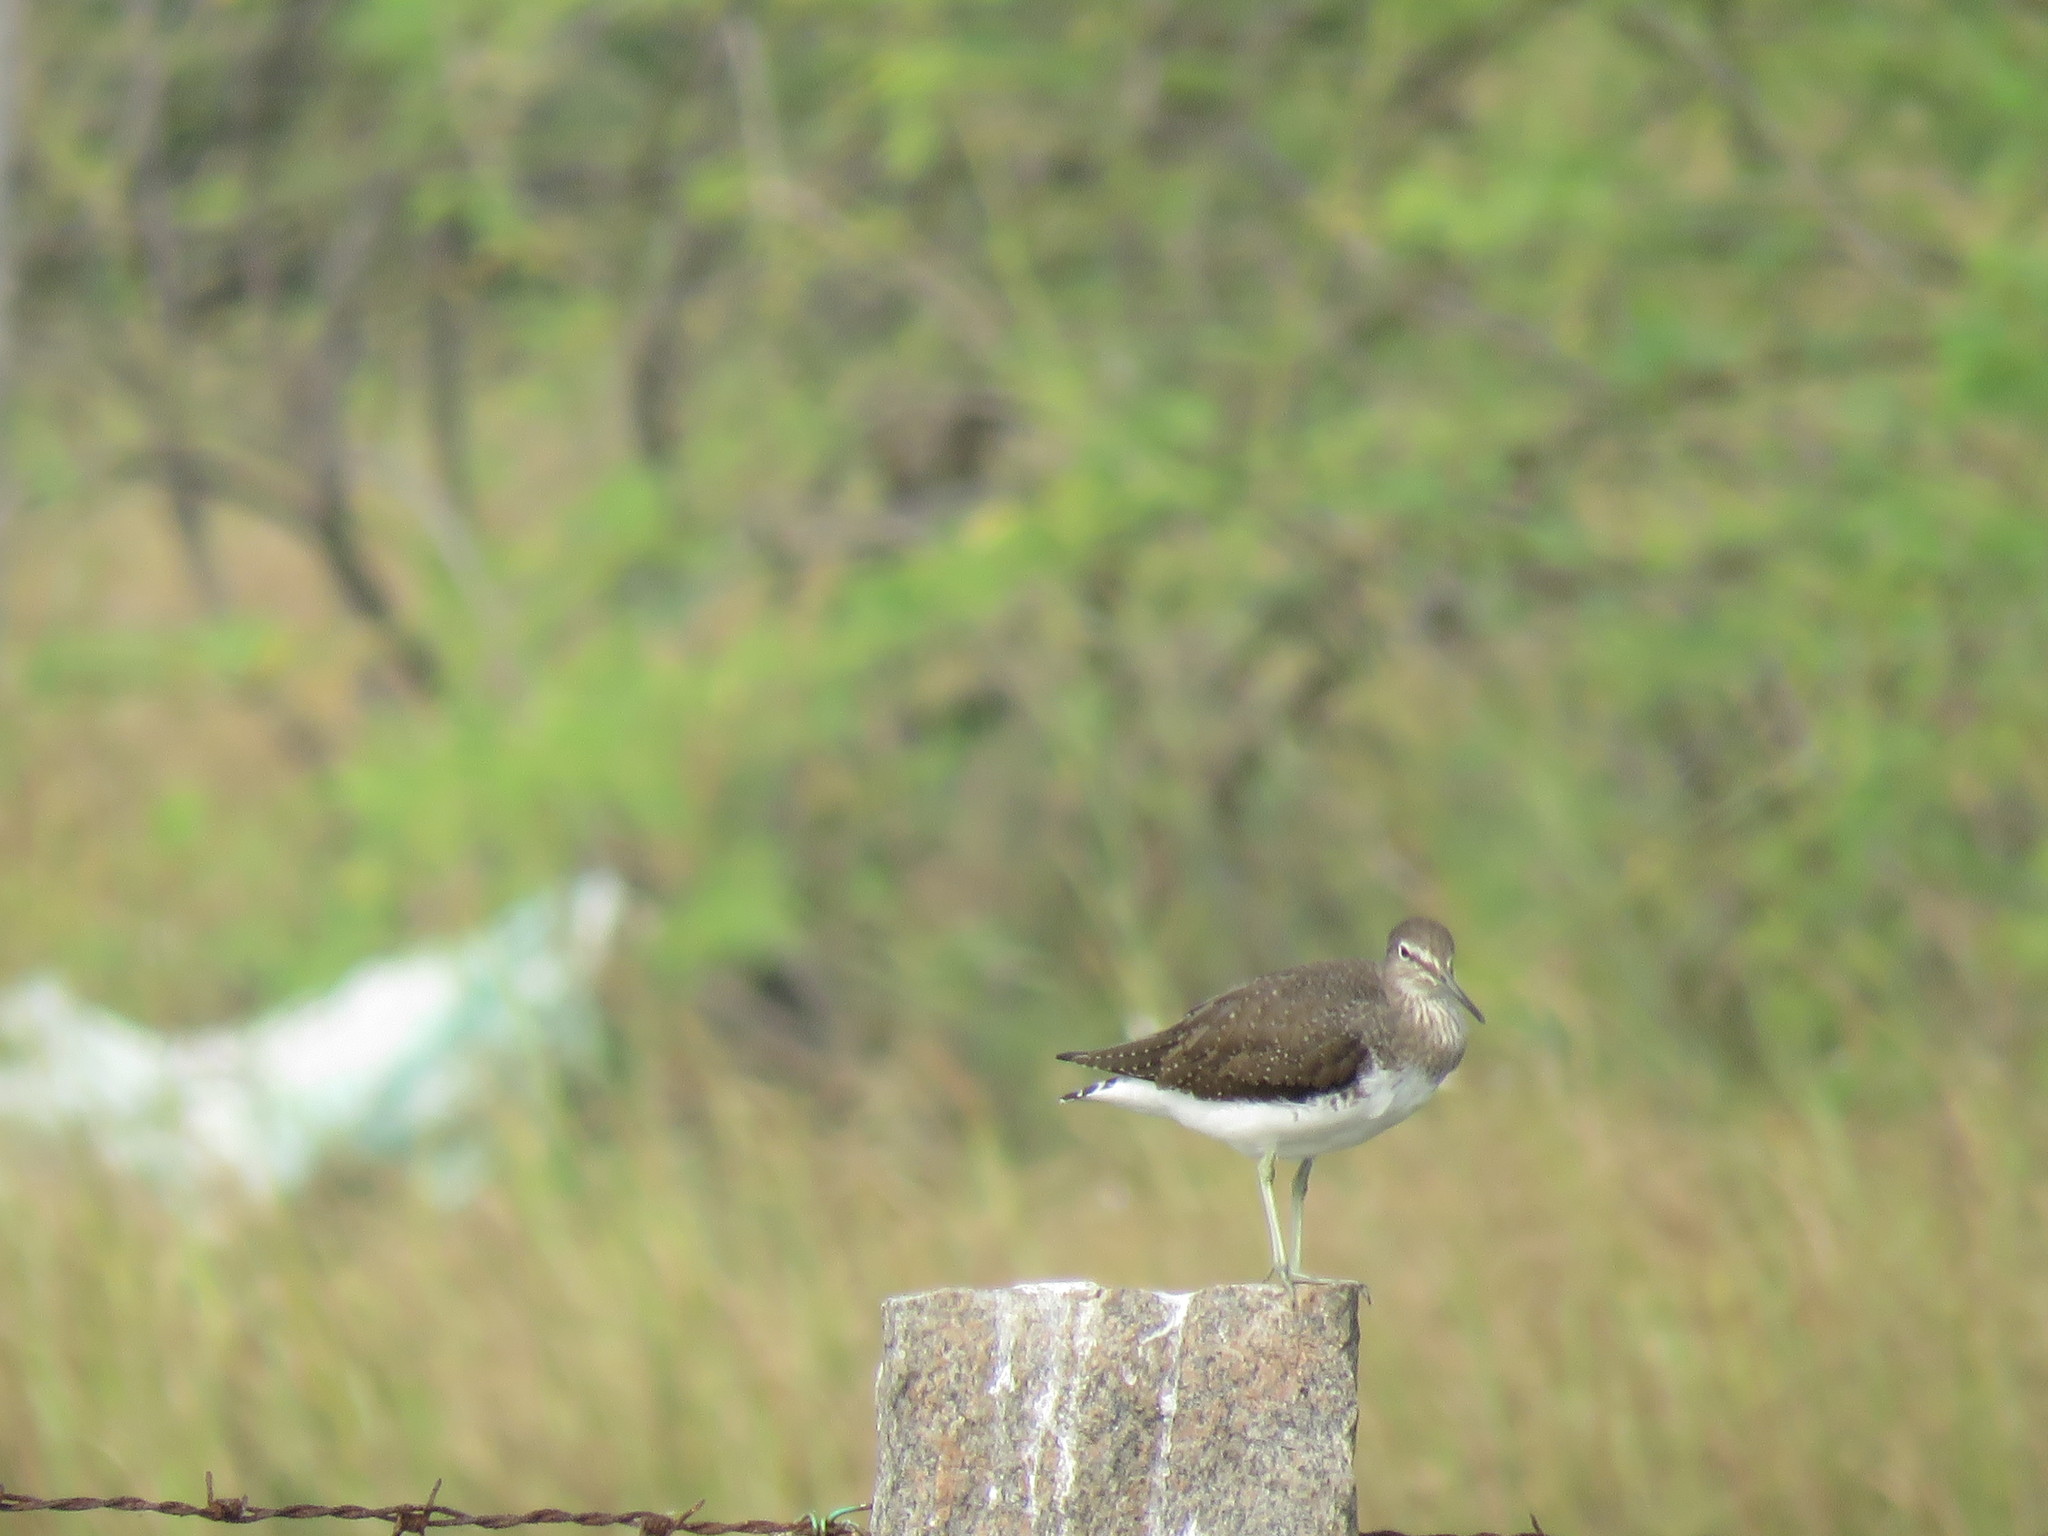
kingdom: Animalia
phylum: Chordata
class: Aves
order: Charadriiformes
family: Scolopacidae
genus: Tringa
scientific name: Tringa ochropus
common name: Green sandpiper
